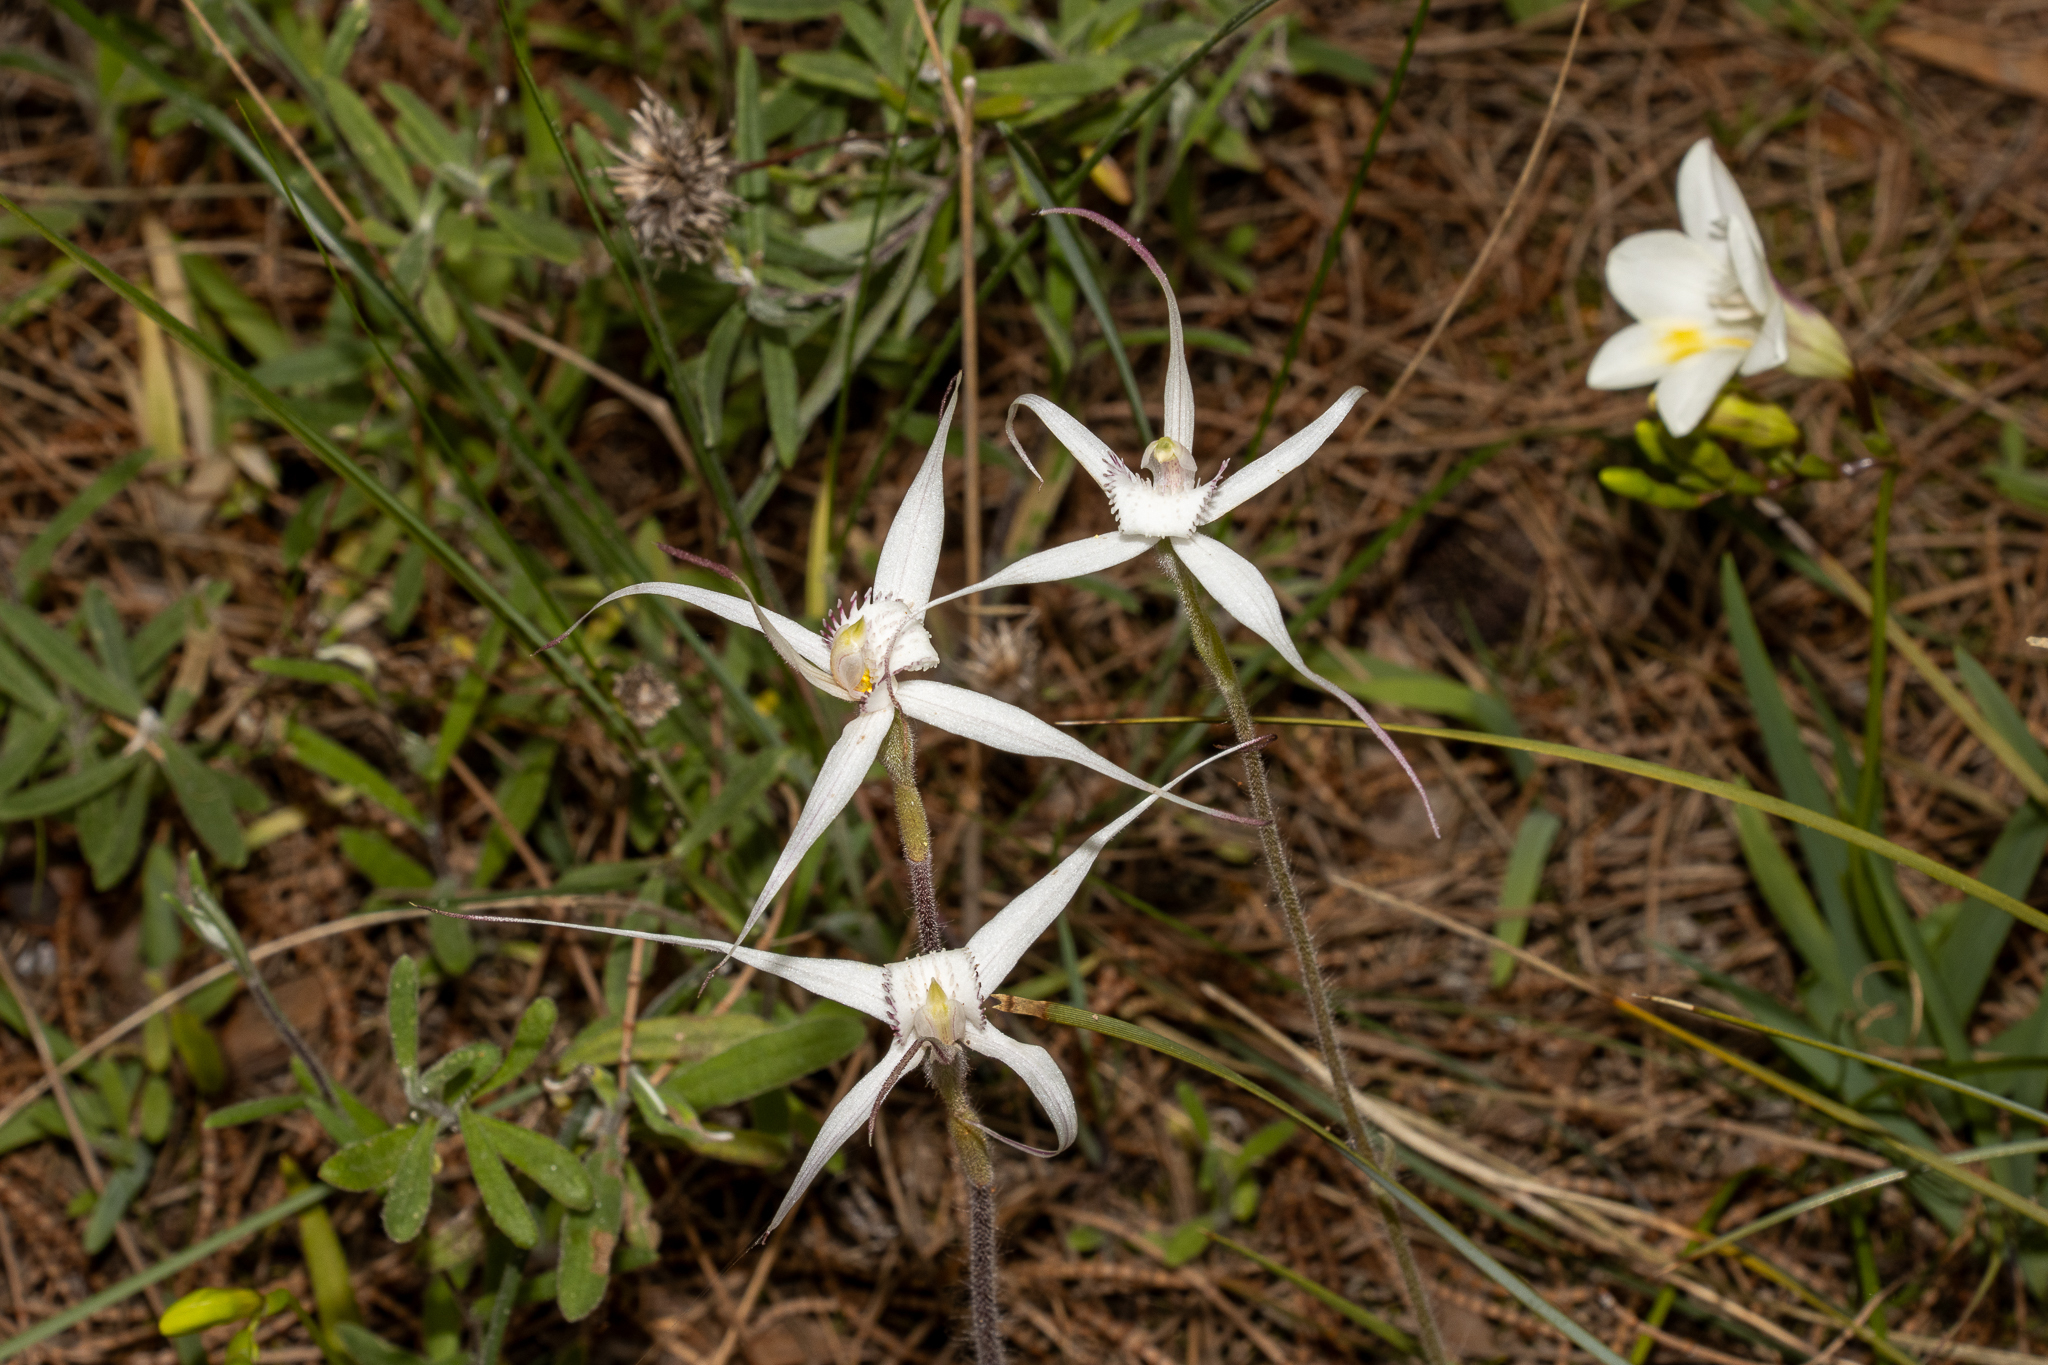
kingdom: Plantae
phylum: Tracheophyta
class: Liliopsida
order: Asparagales
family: Orchidaceae
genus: Caladenia
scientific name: Caladenia intuta
